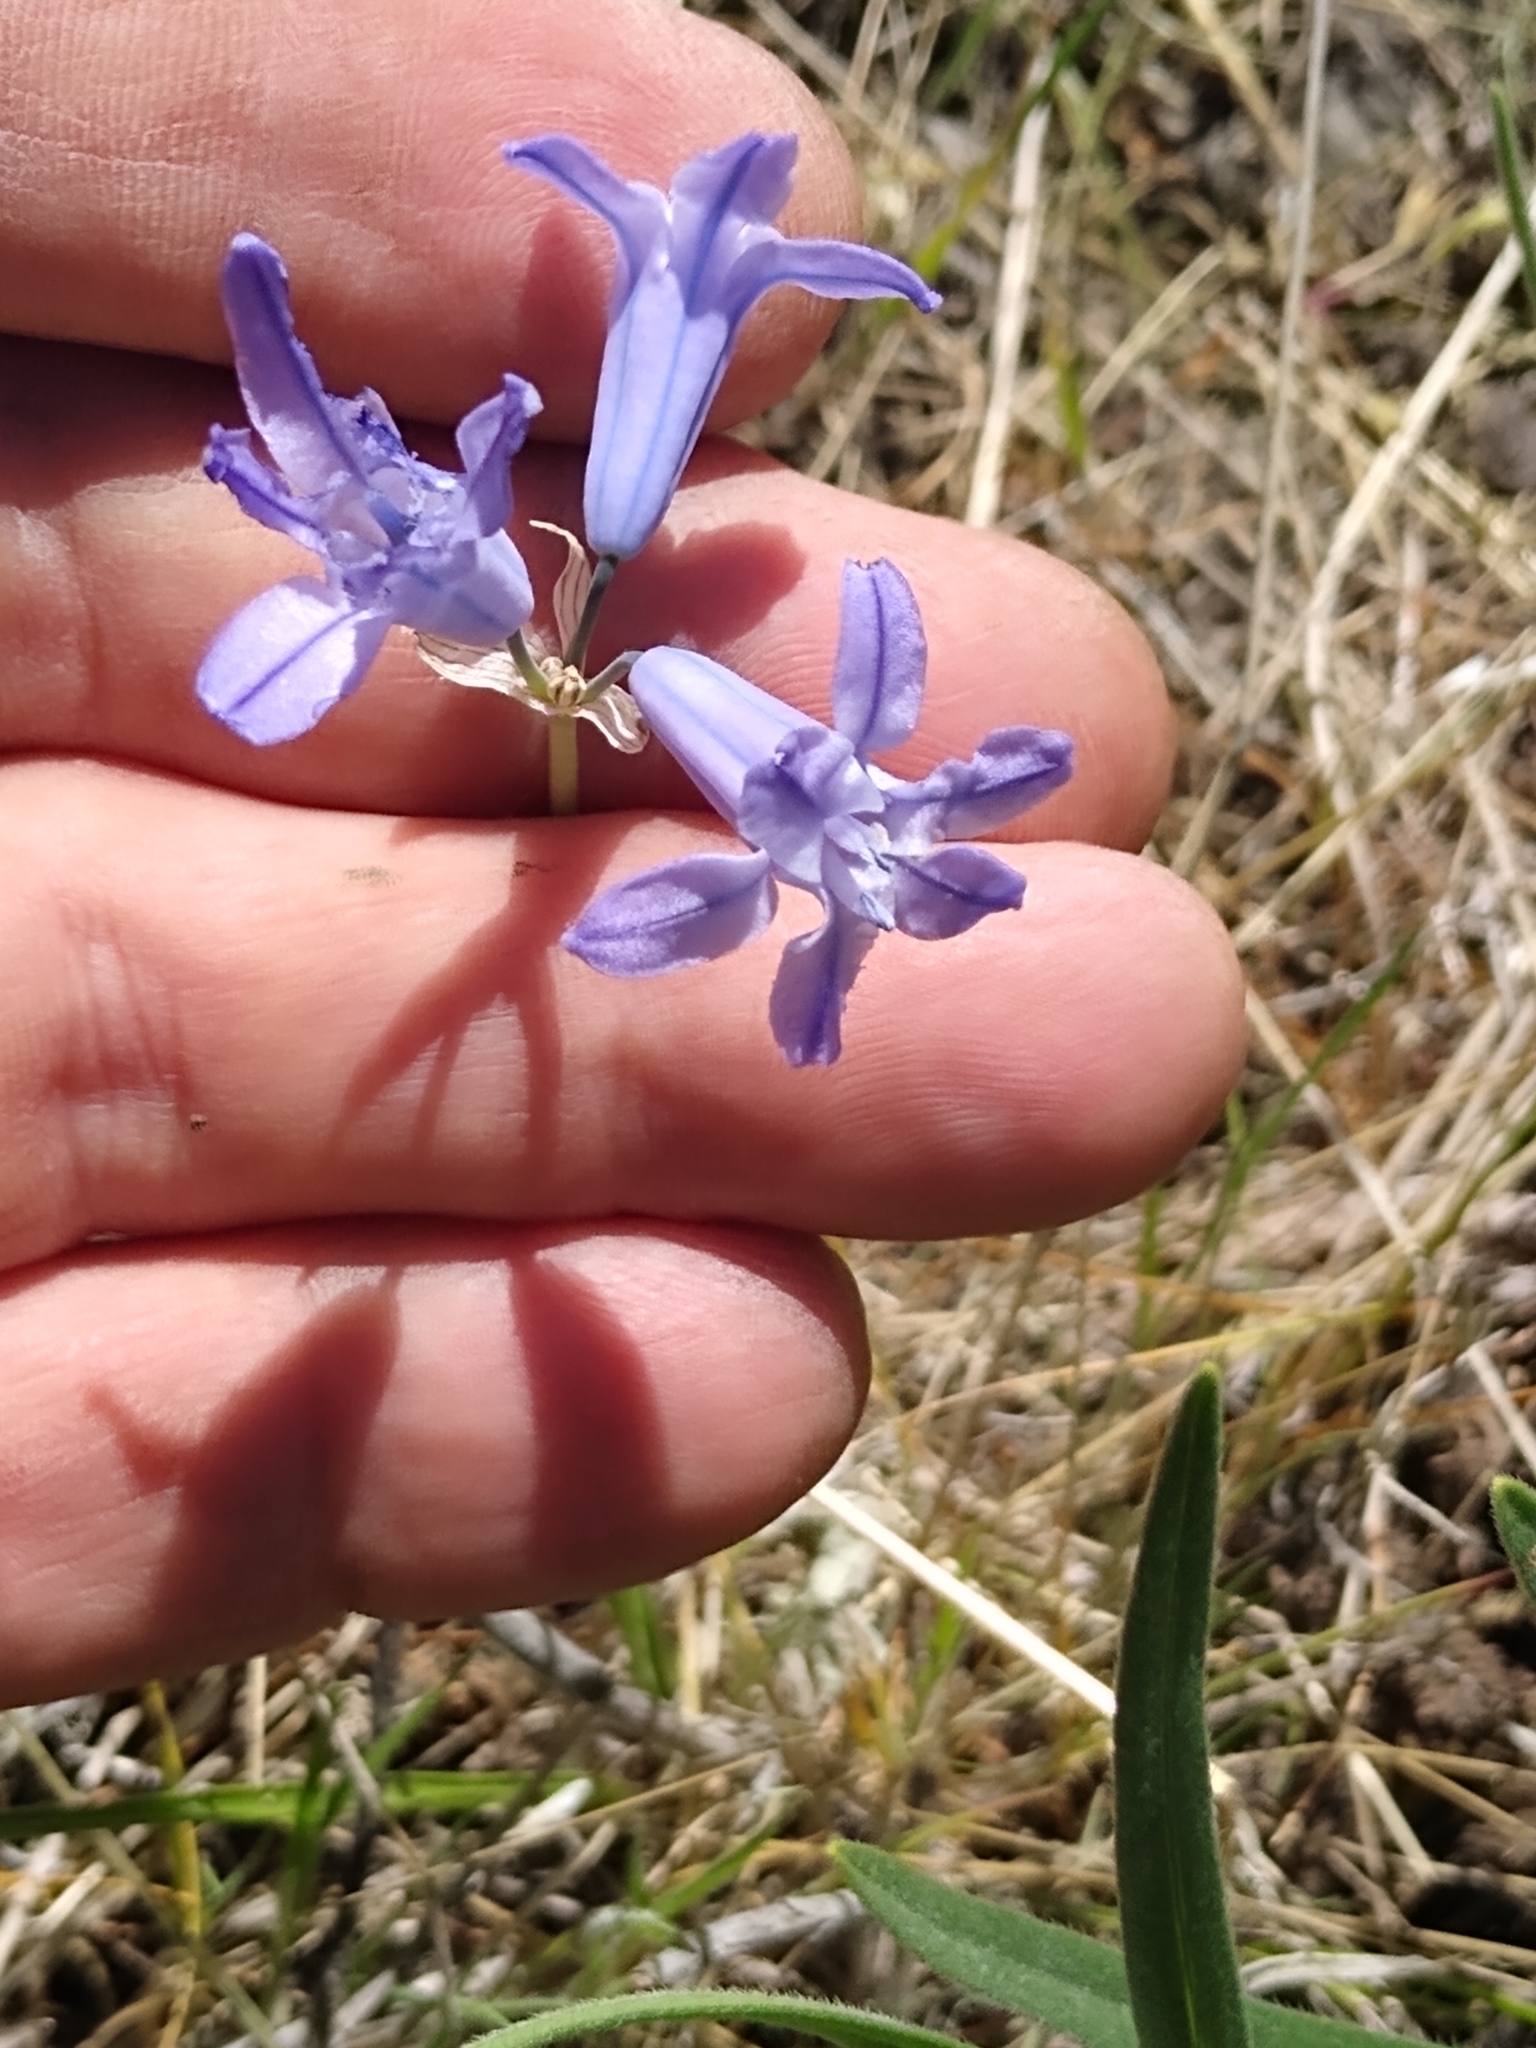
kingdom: Plantae
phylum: Tracheophyta
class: Liliopsida
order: Asparagales
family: Asparagaceae
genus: Triteleia
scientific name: Triteleia grandiflora
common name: Wild hyacinth
